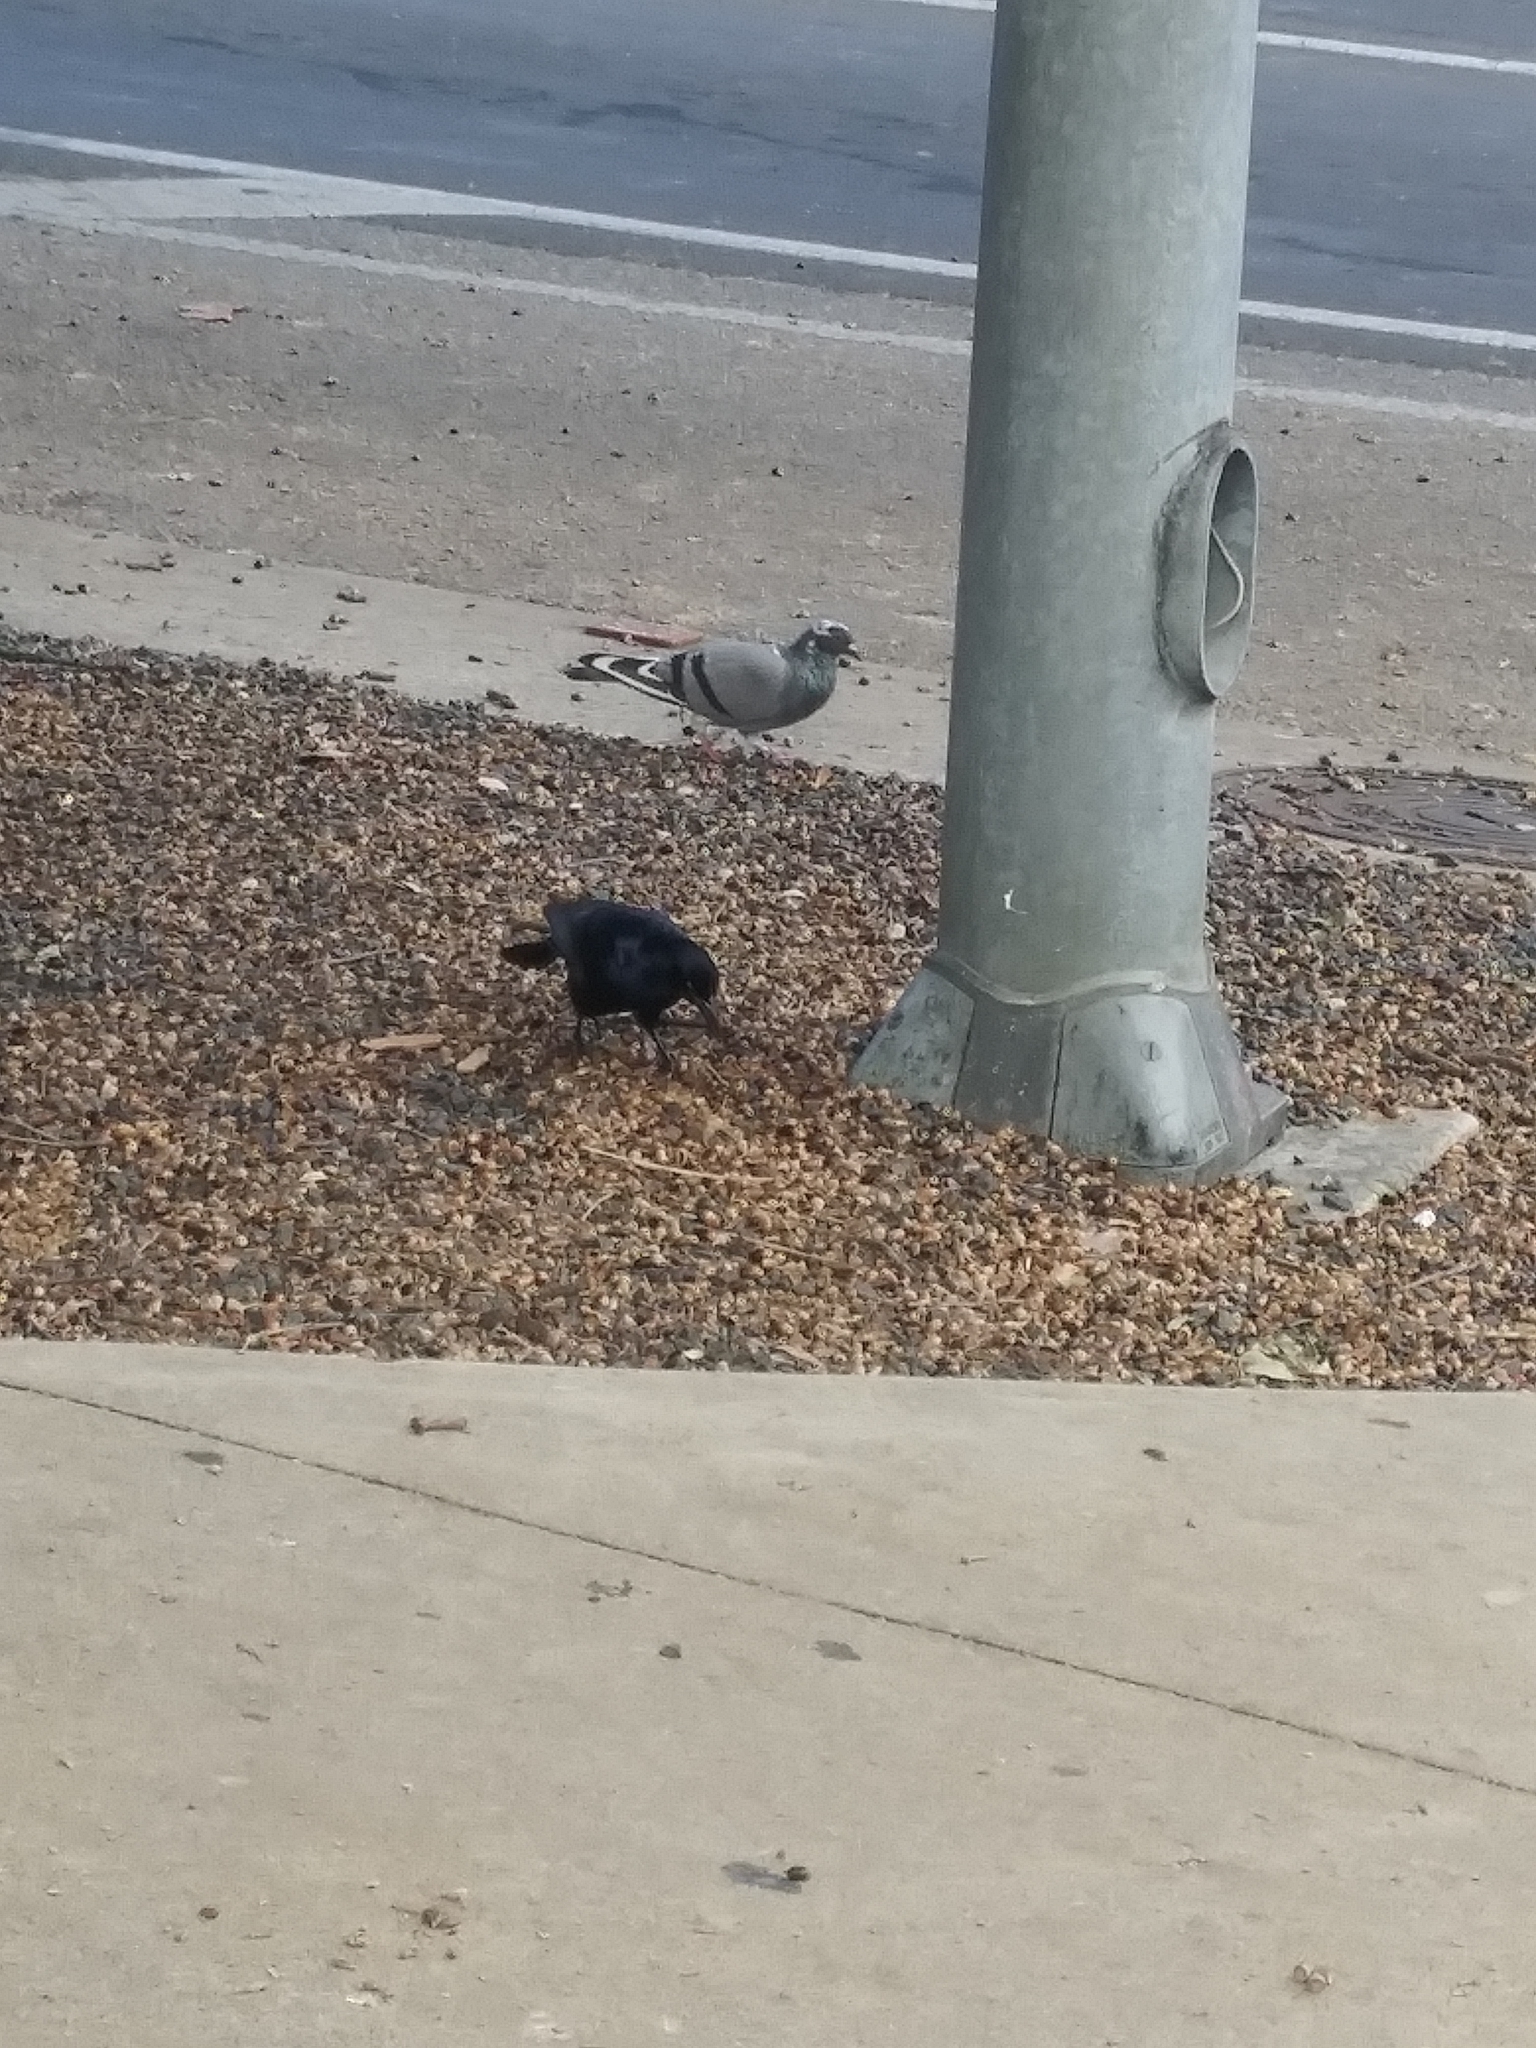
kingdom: Animalia
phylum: Chordata
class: Aves
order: Columbiformes
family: Columbidae
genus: Columba
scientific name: Columba livia
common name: Rock pigeon
